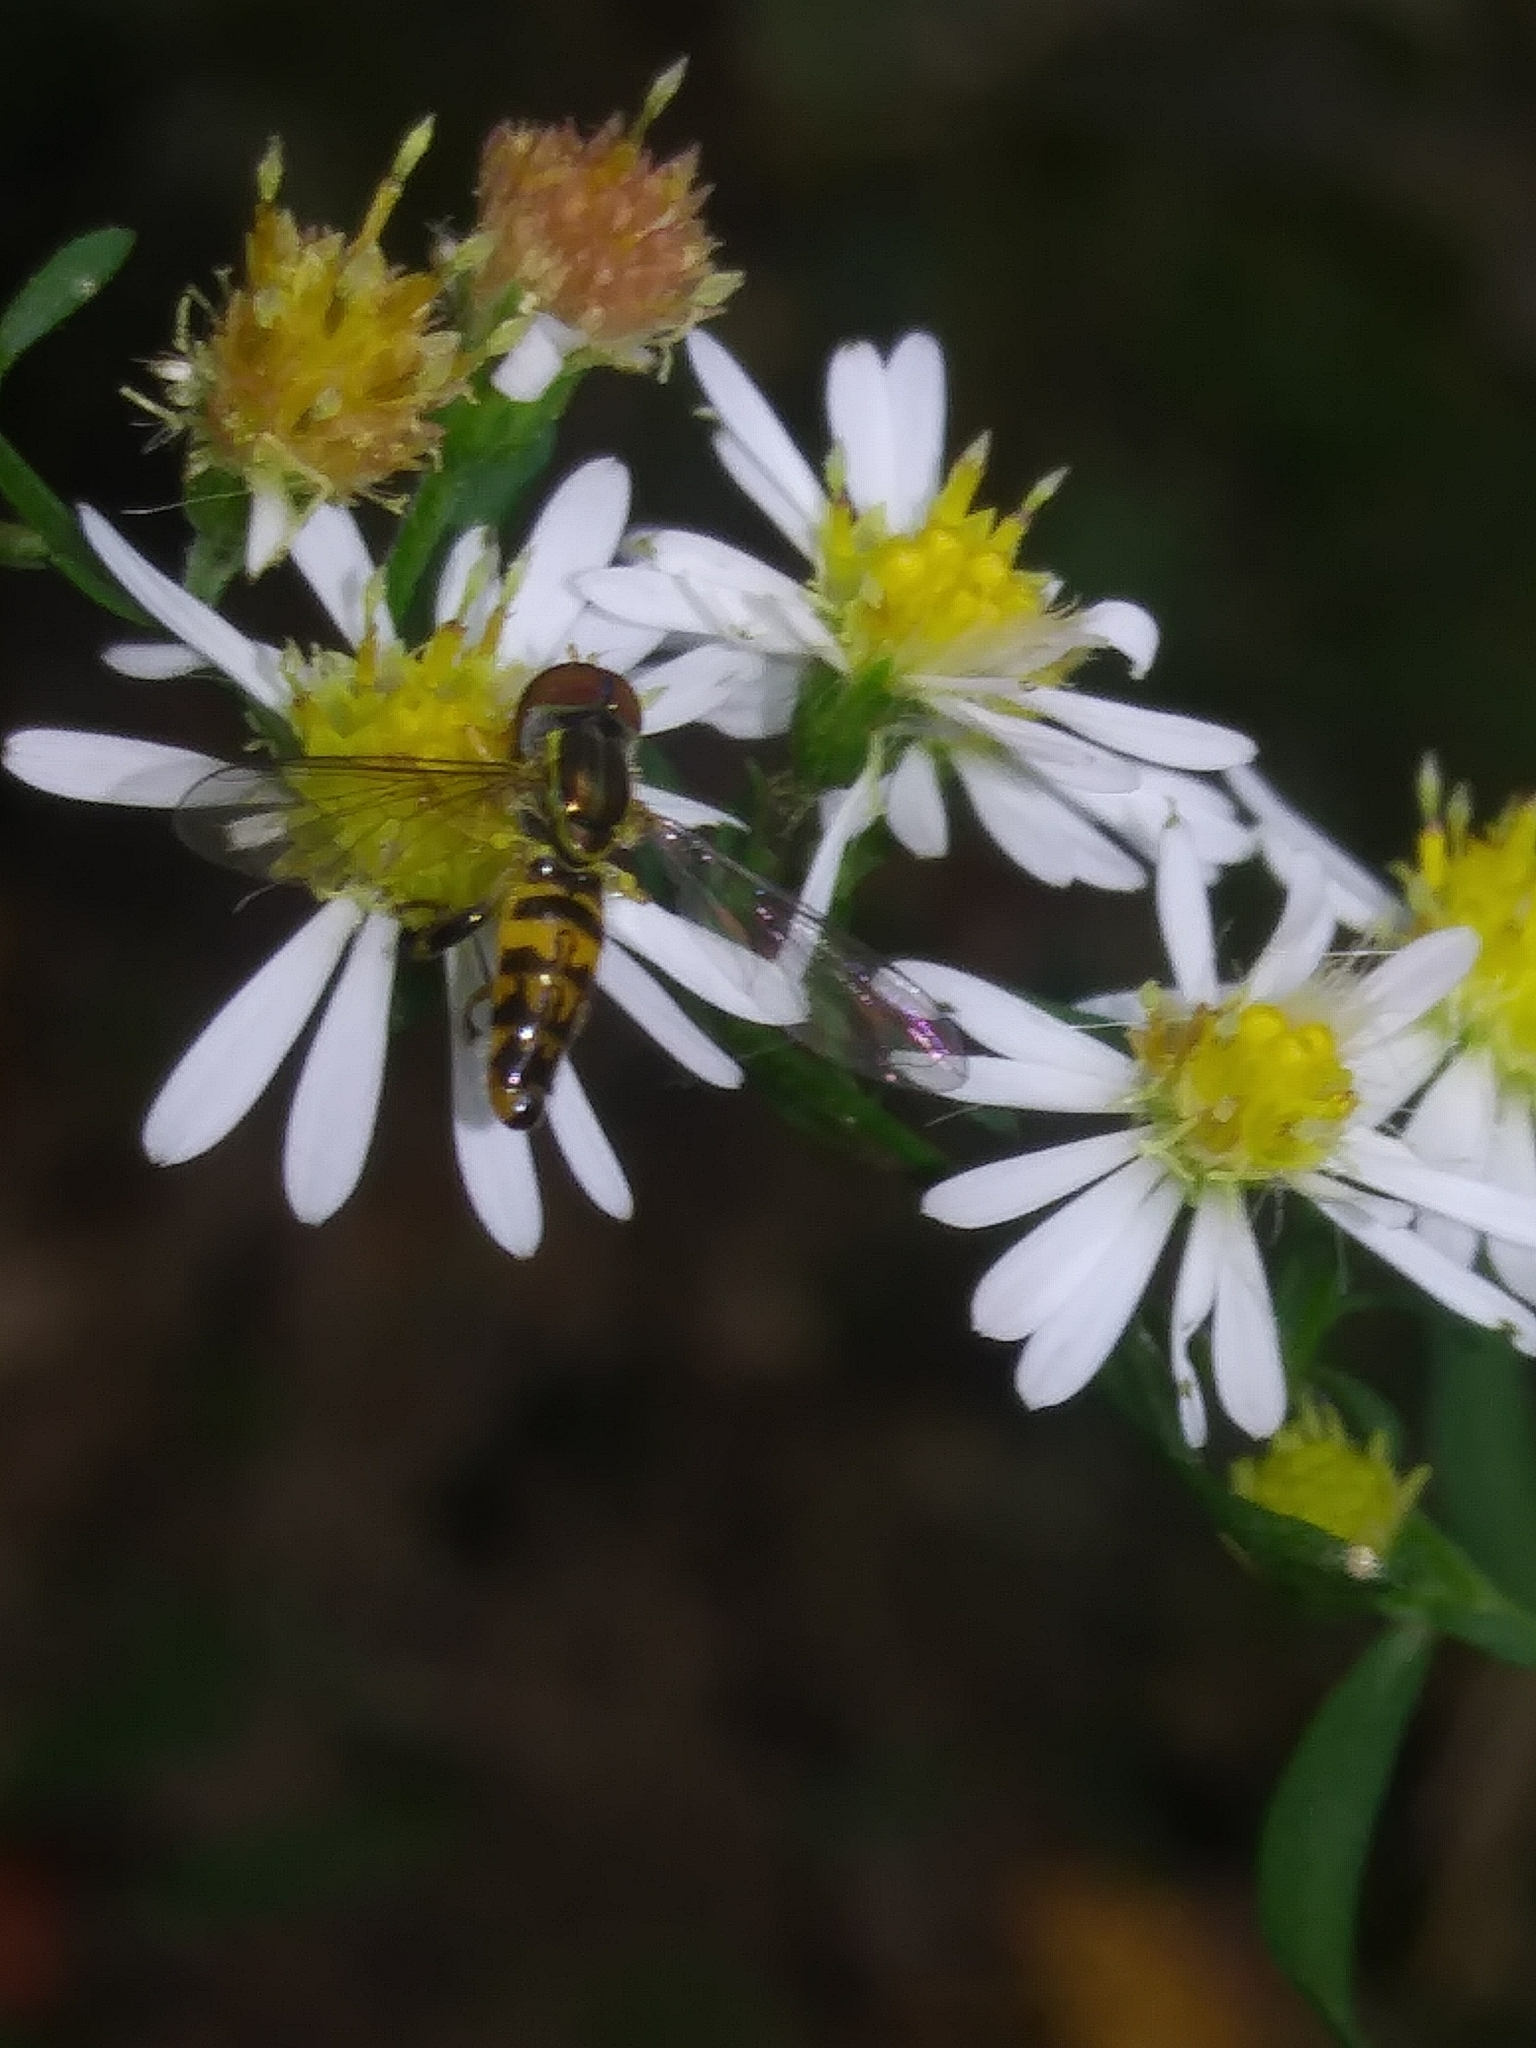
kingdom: Animalia
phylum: Arthropoda
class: Insecta
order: Diptera
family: Syrphidae
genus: Toxomerus
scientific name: Toxomerus geminatus
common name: Eastern calligrapher
